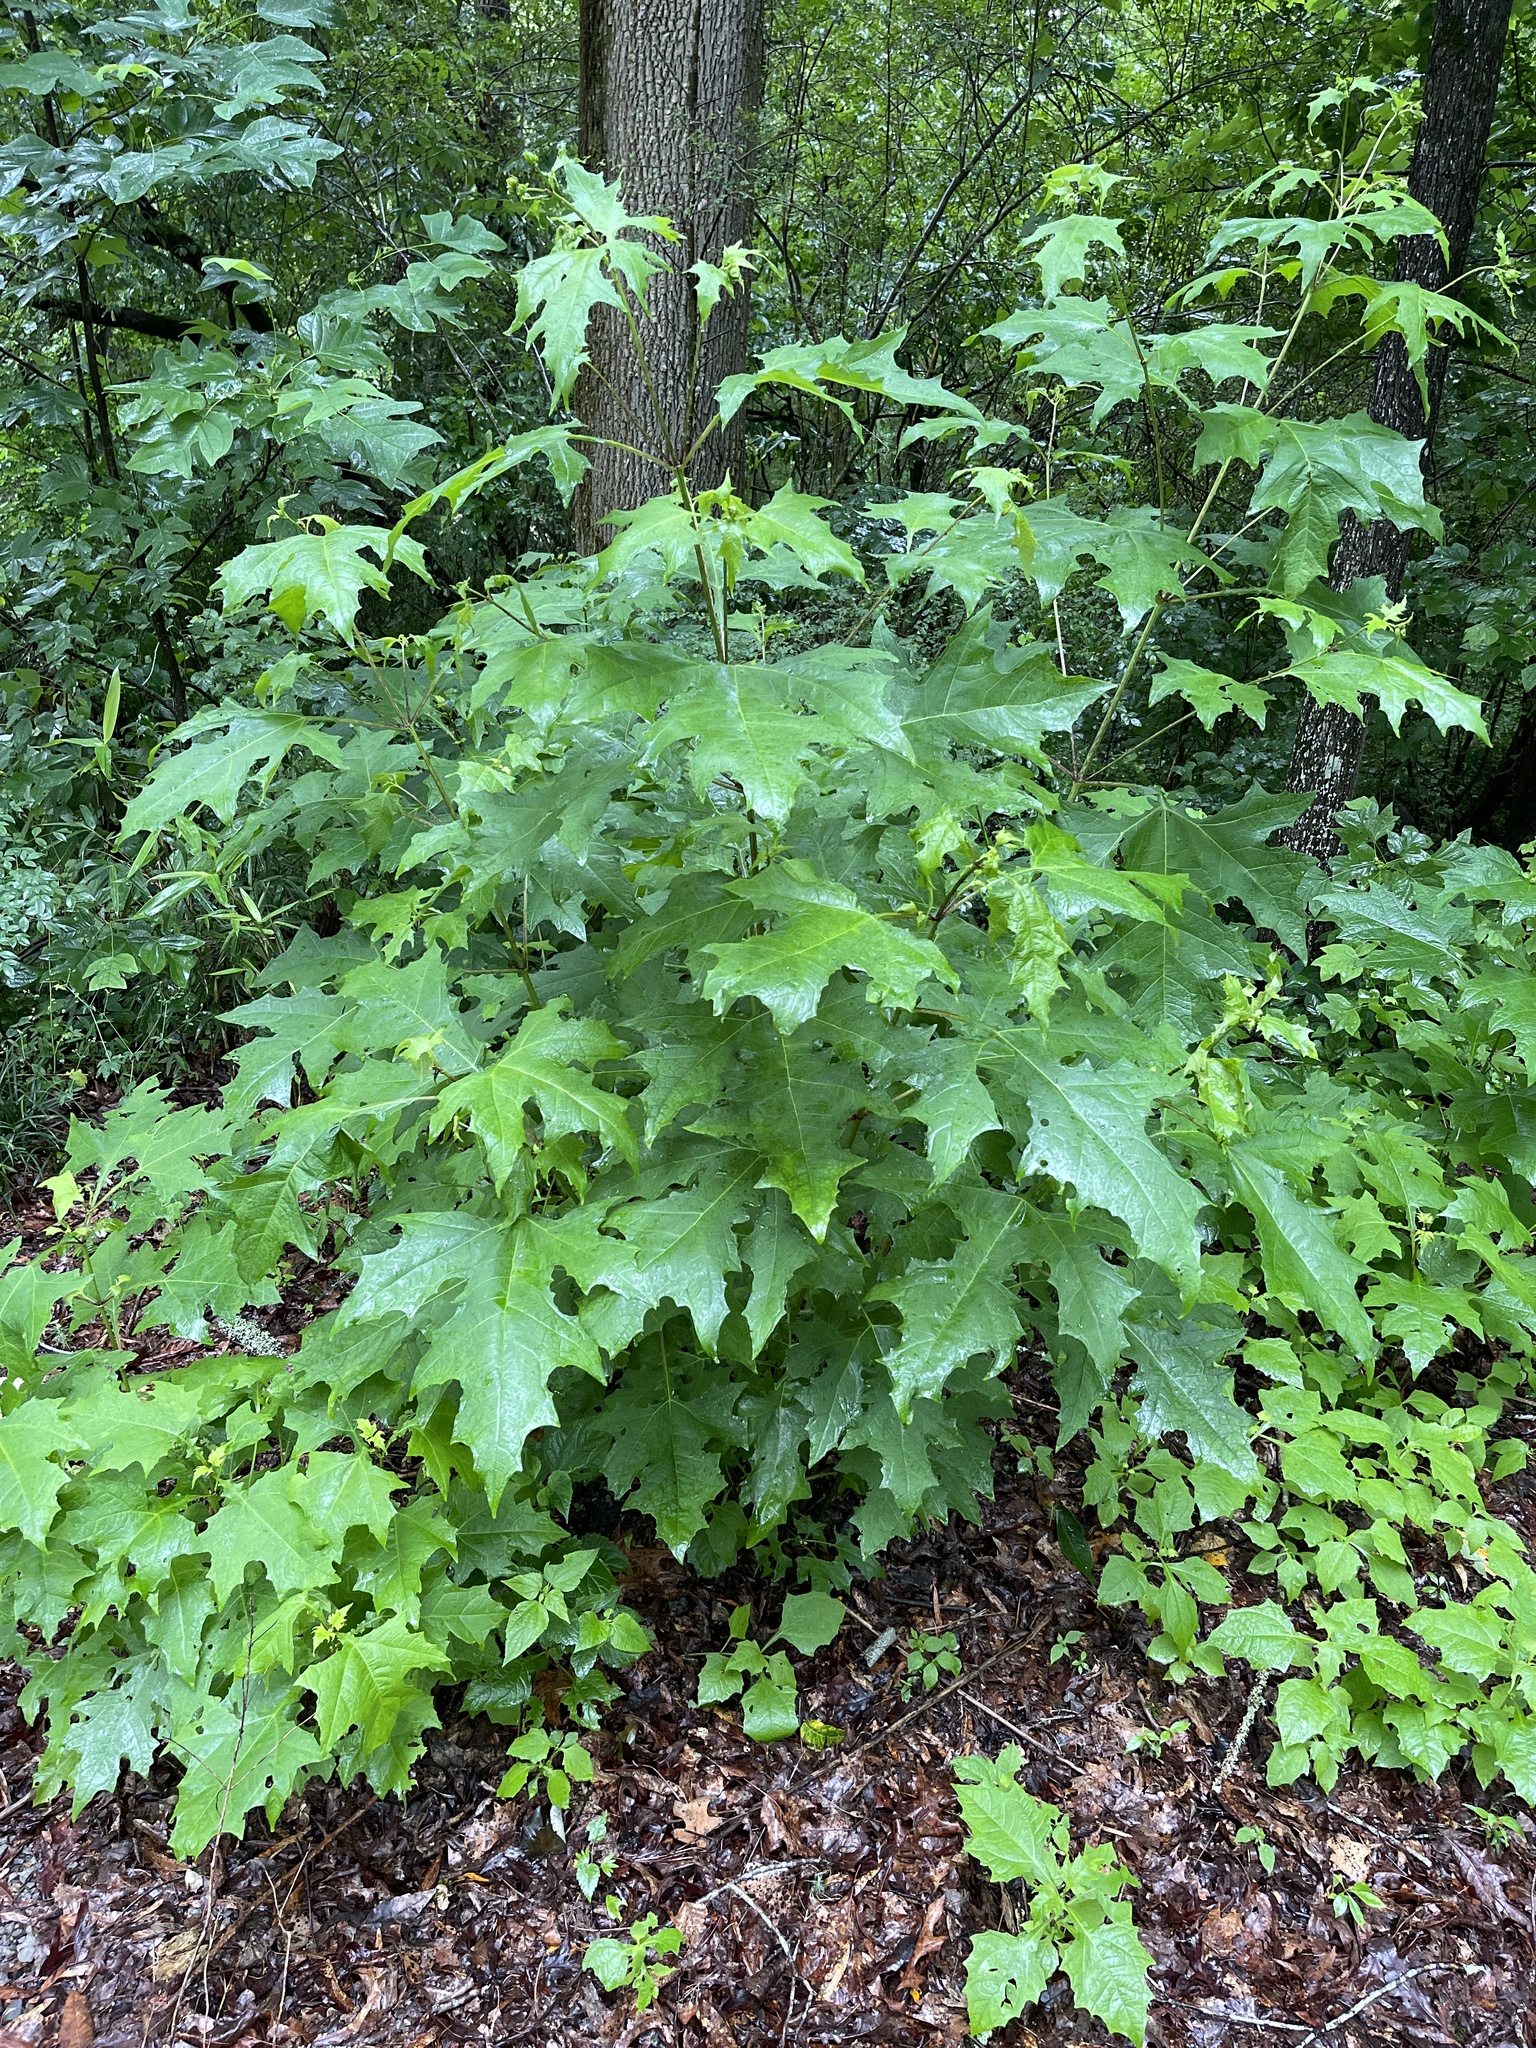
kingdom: Plantae
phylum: Tracheophyta
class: Magnoliopsida
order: Asterales
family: Asteraceae
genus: Smallanthus
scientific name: Smallanthus uvedalia
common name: Bear's-foot
